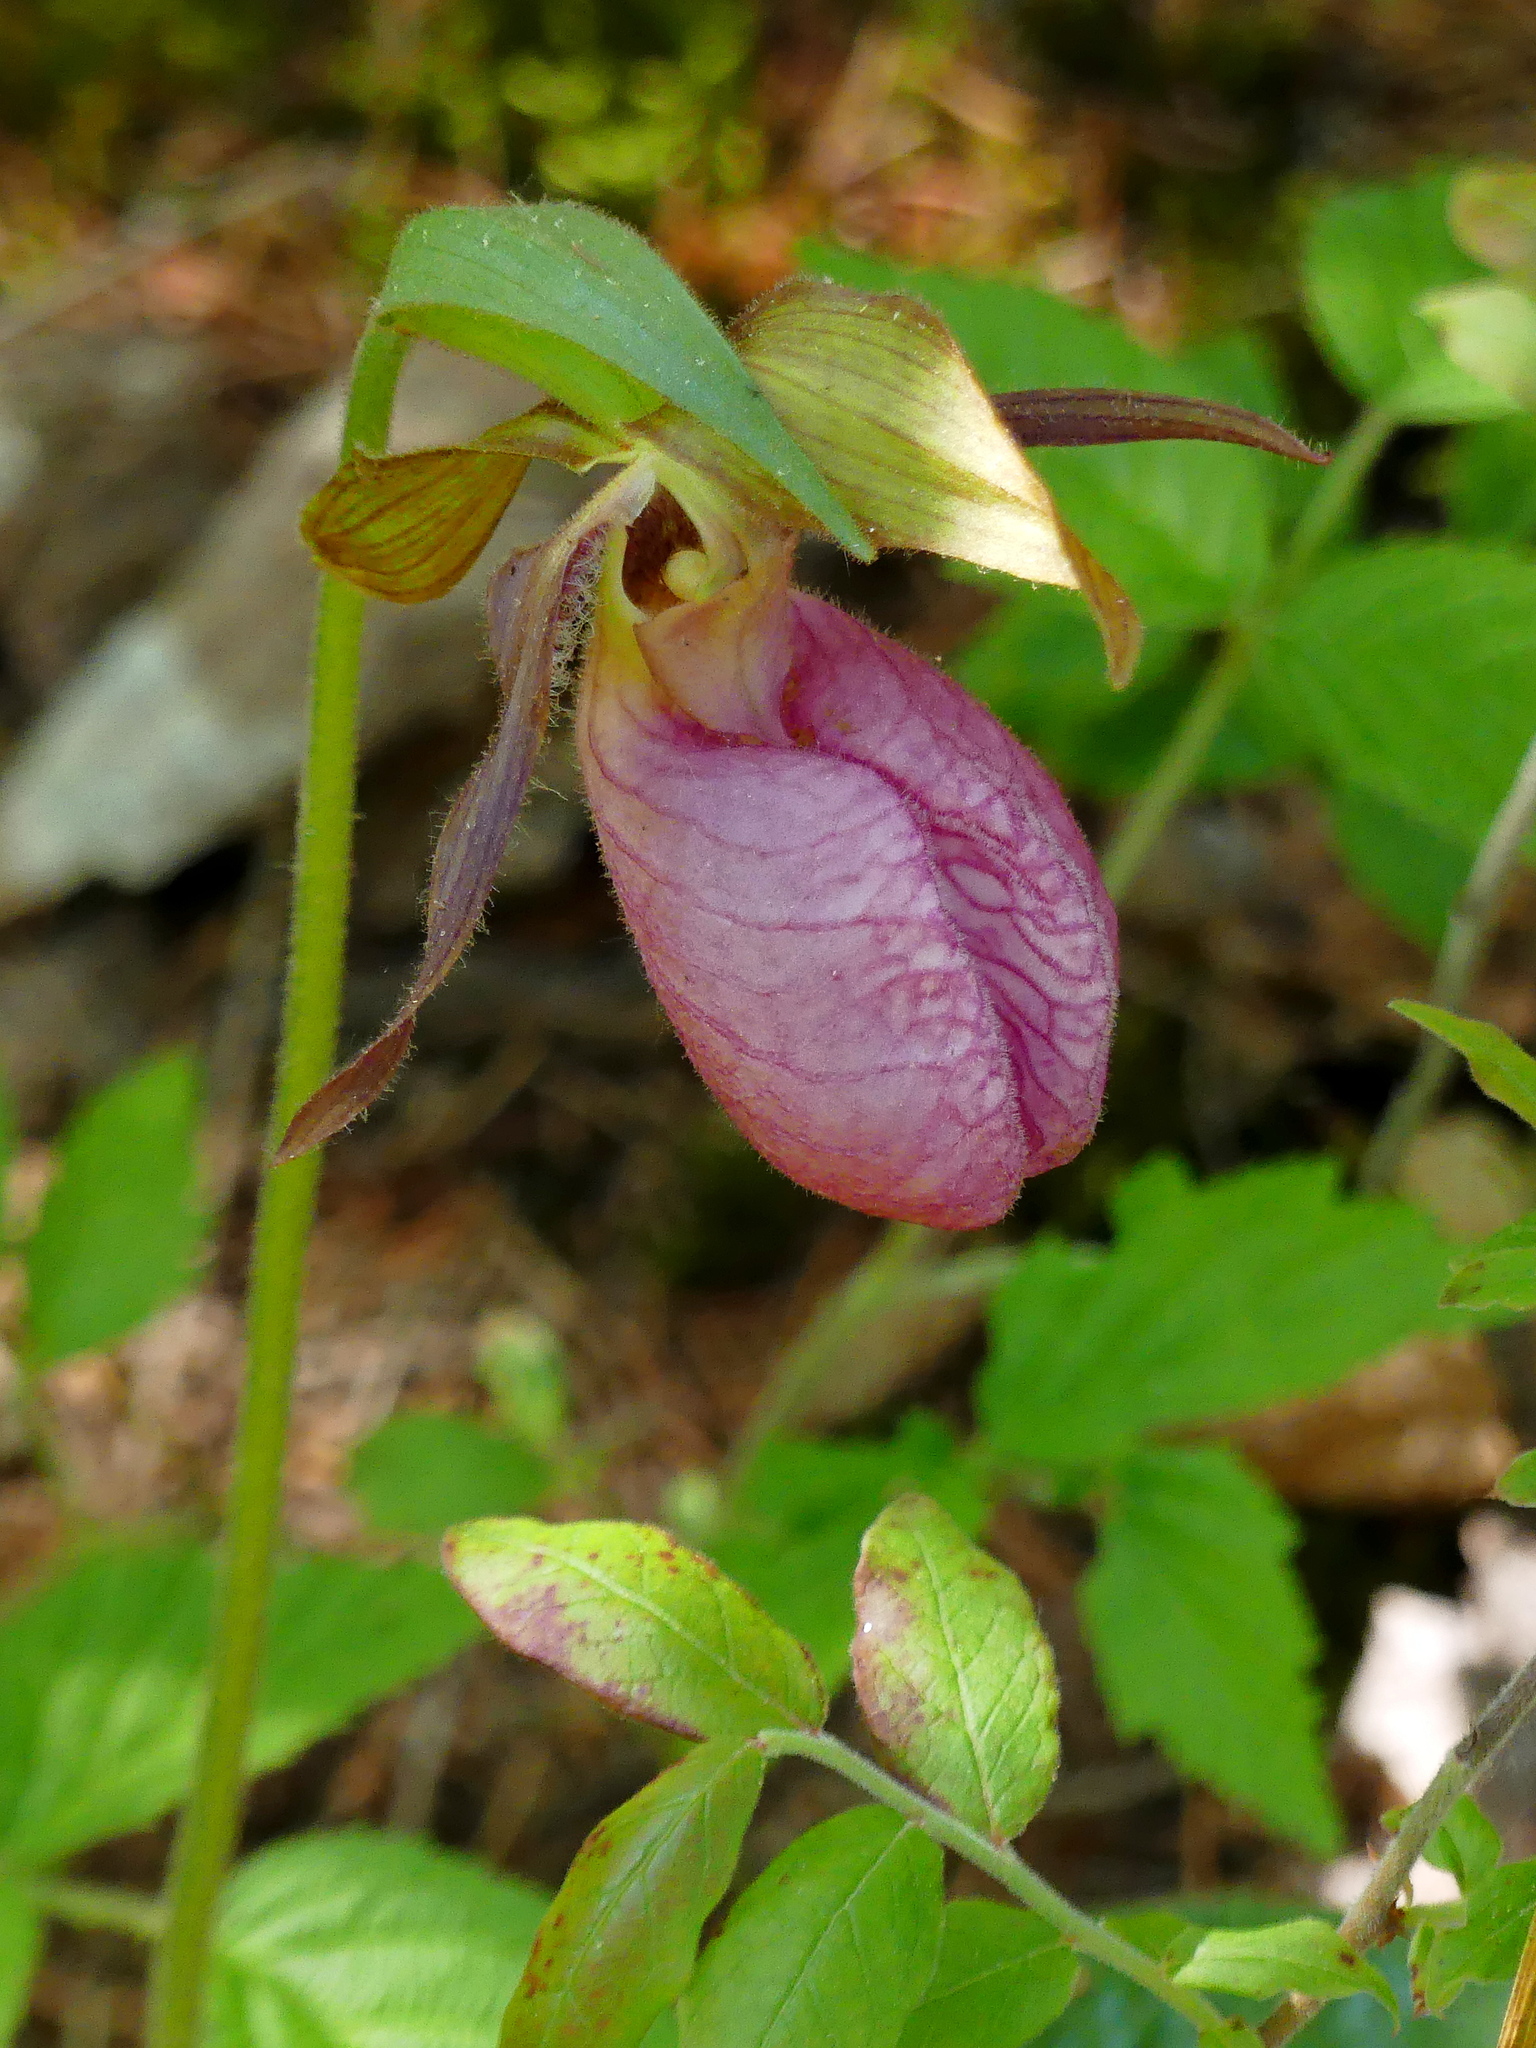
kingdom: Plantae
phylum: Tracheophyta
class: Liliopsida
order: Asparagales
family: Orchidaceae
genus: Cypripedium
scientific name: Cypripedium acaule
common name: Pink lady's-slipper
